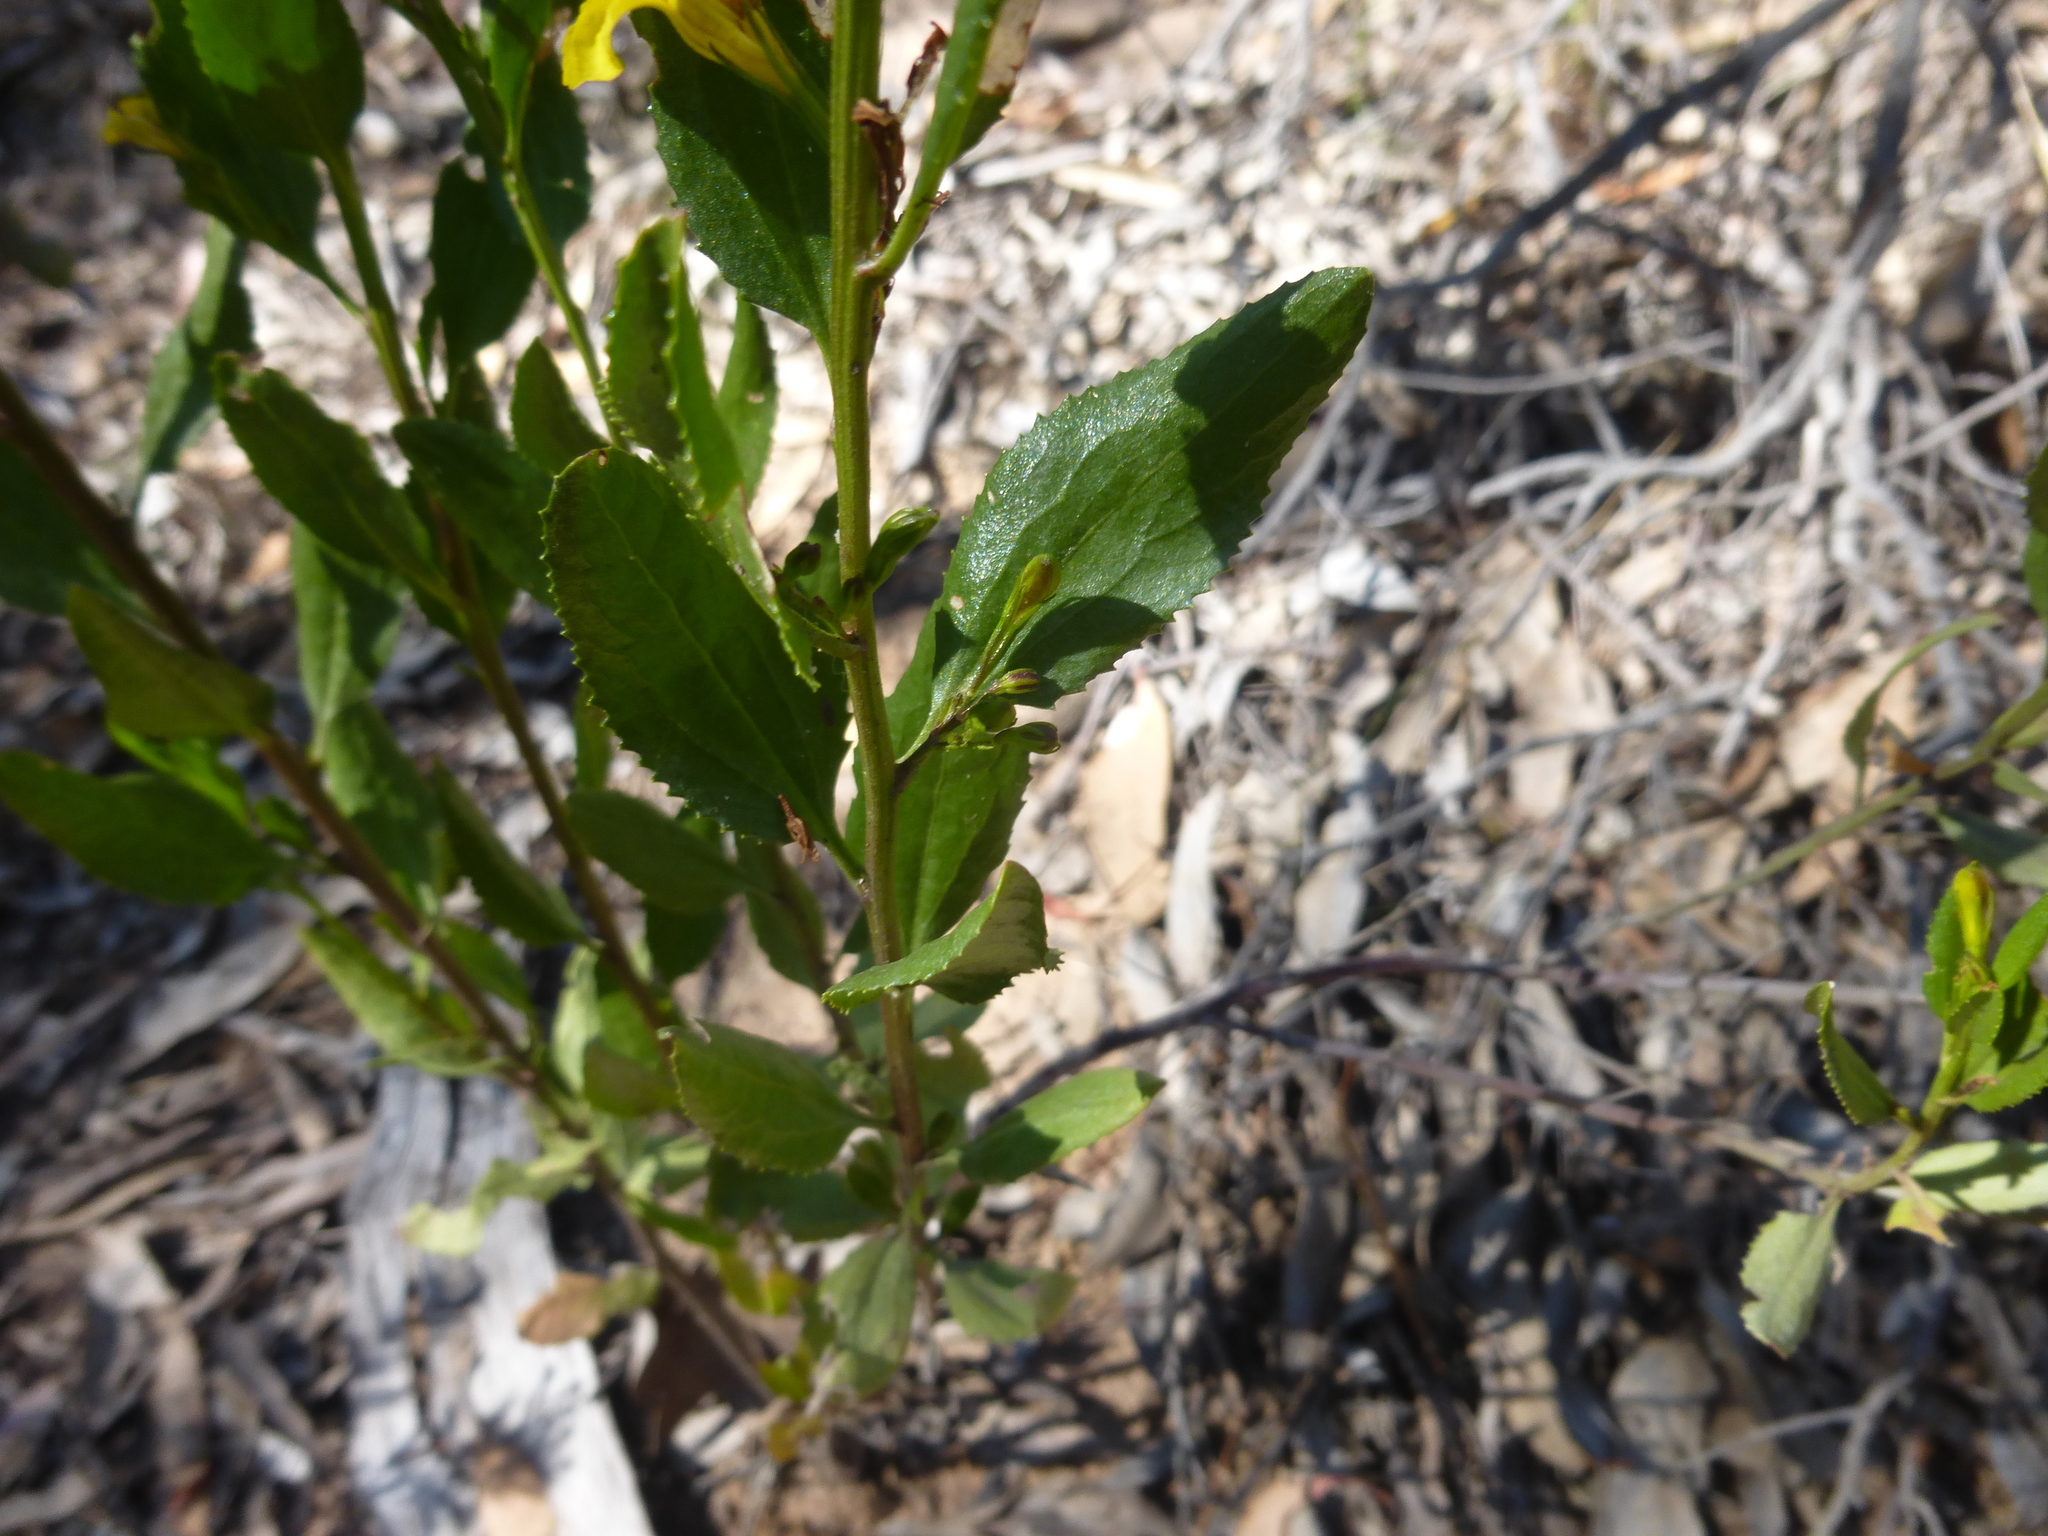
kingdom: Plantae
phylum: Tracheophyta
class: Magnoliopsida
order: Asterales
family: Goodeniaceae
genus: Goodenia
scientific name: Goodenia ovata
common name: Hop goodenia
